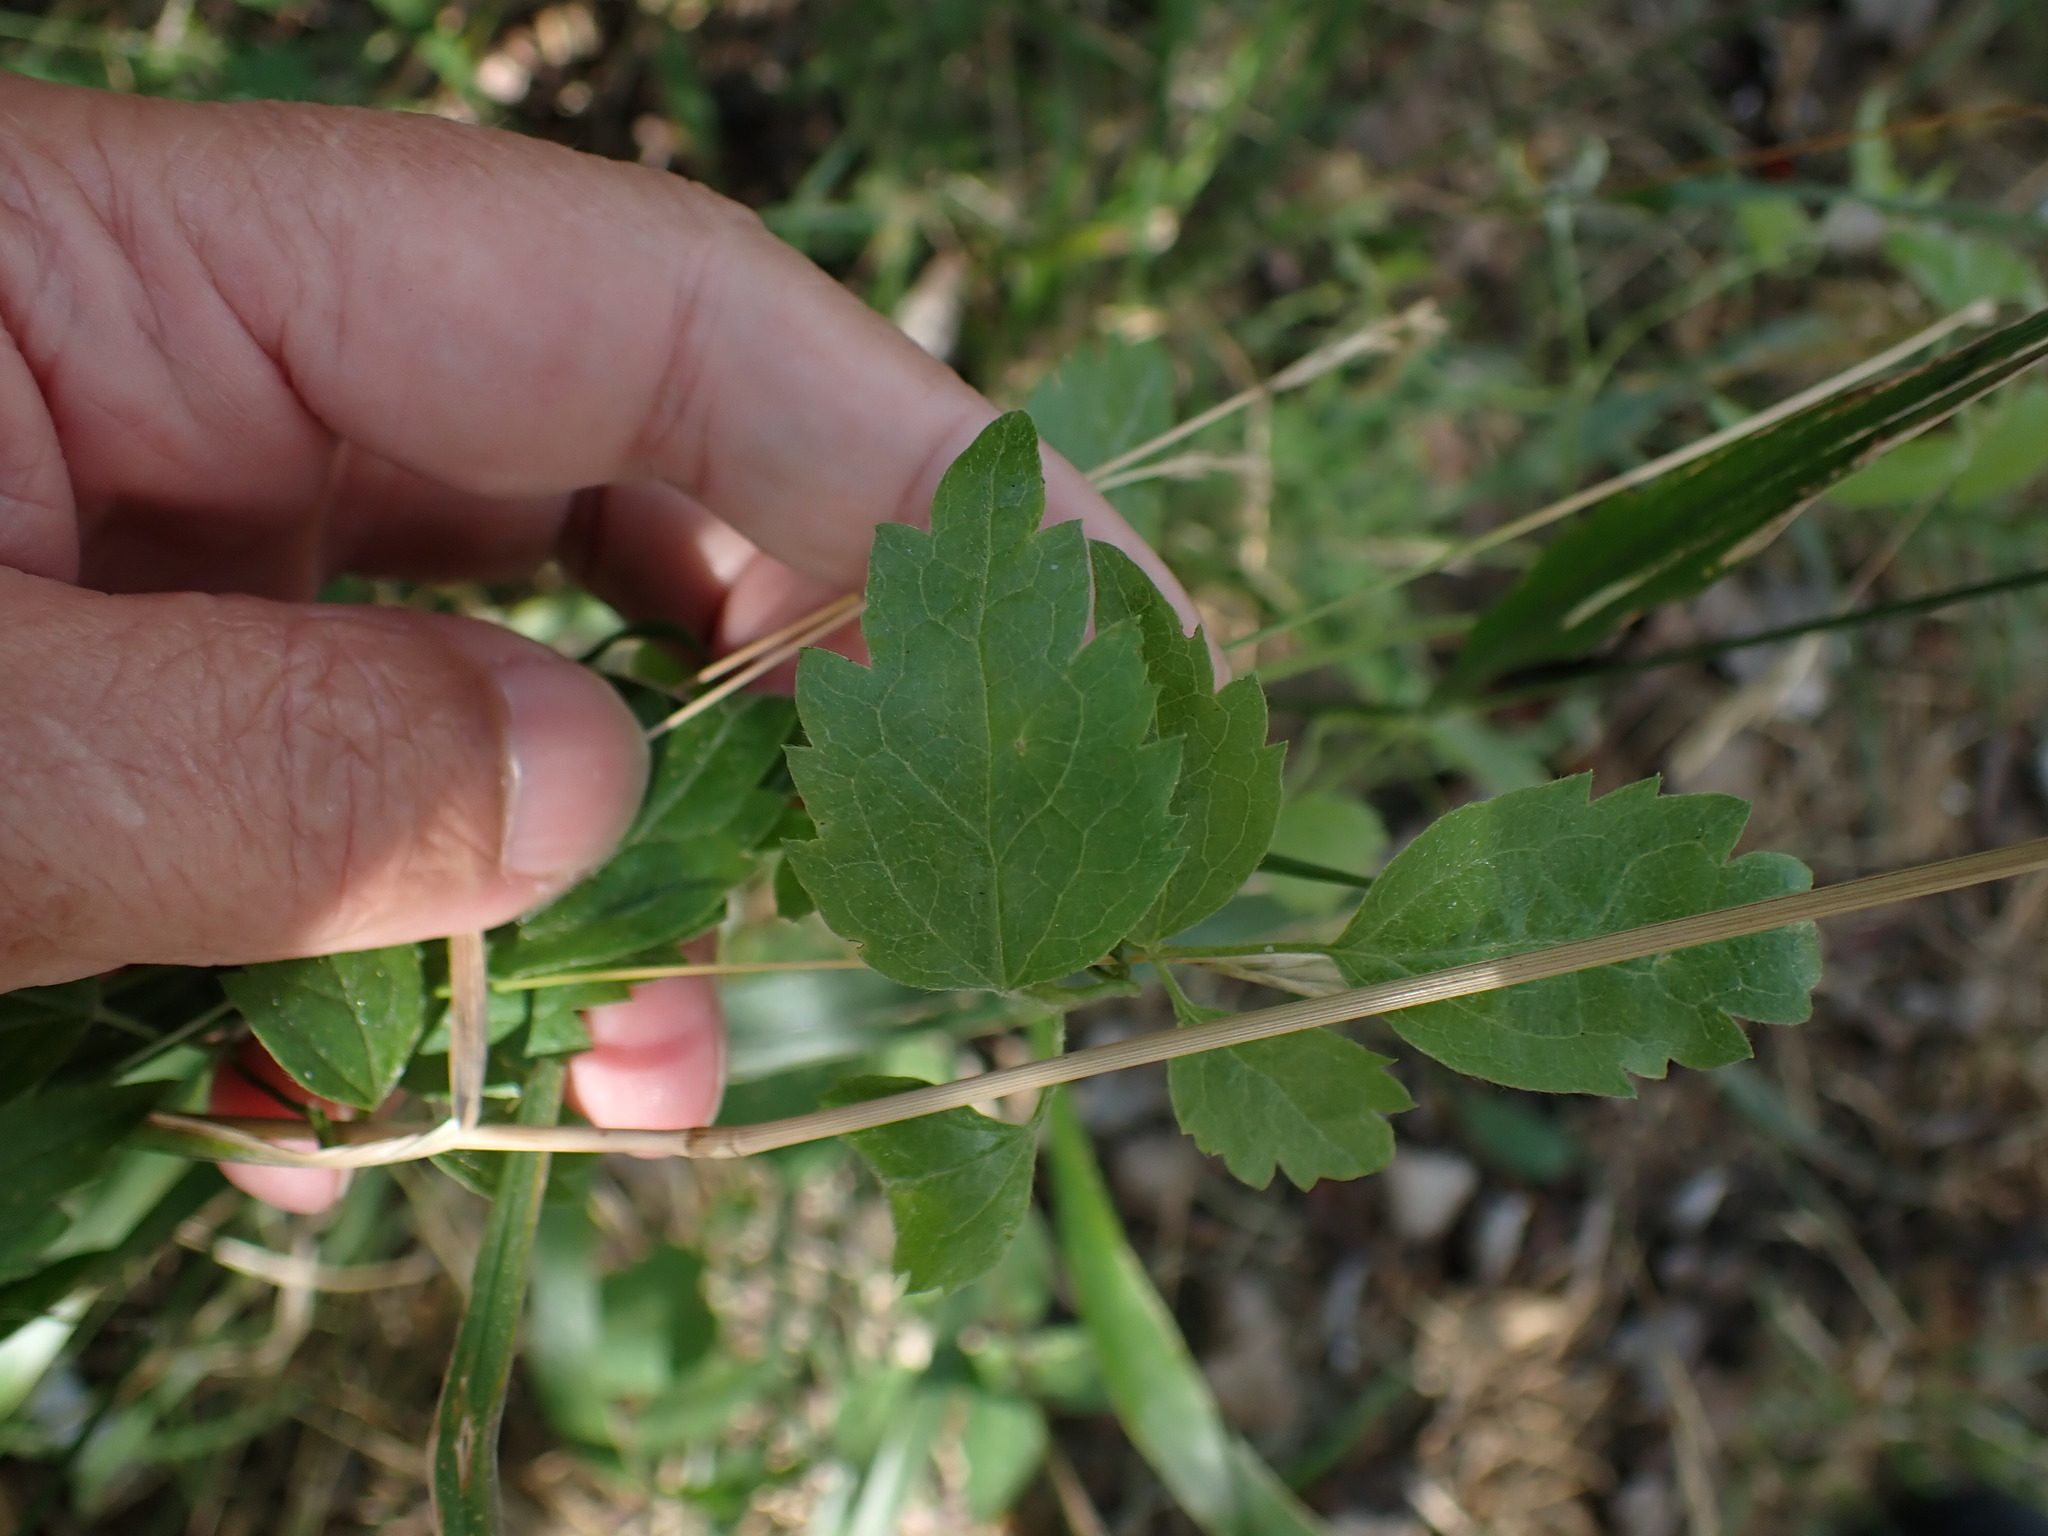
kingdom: Plantae
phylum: Tracheophyta
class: Magnoliopsida
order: Ranunculales
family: Ranunculaceae
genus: Clematis
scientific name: Clematis vitalba
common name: Evergreen clematis
